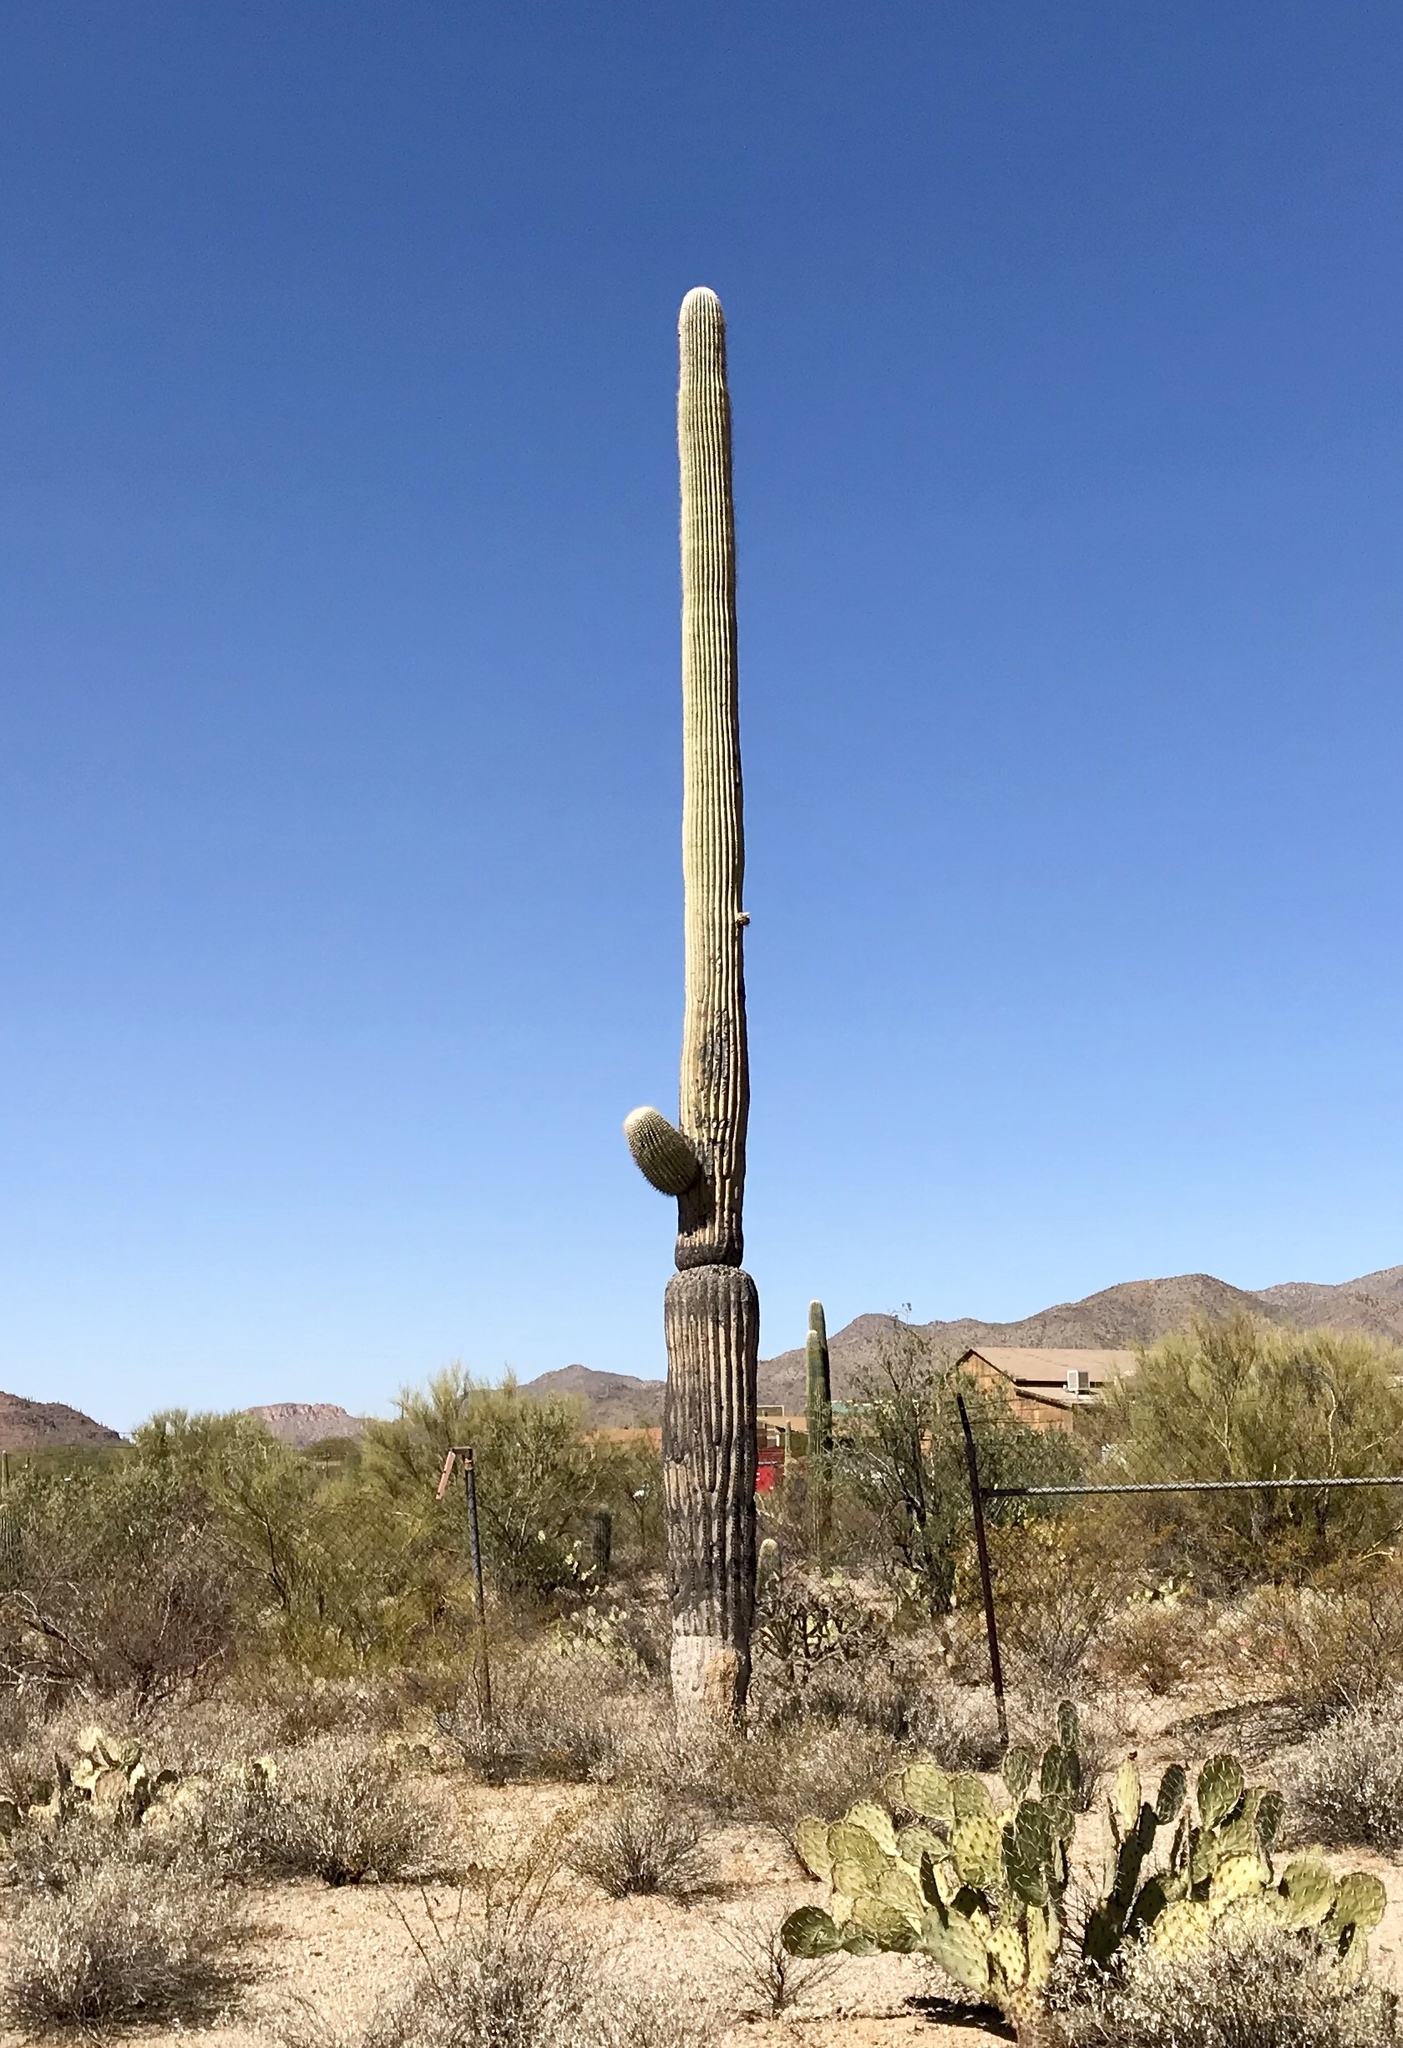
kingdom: Plantae
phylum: Tracheophyta
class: Magnoliopsida
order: Caryophyllales
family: Cactaceae
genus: Carnegiea
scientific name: Carnegiea gigantea
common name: Saguaro
